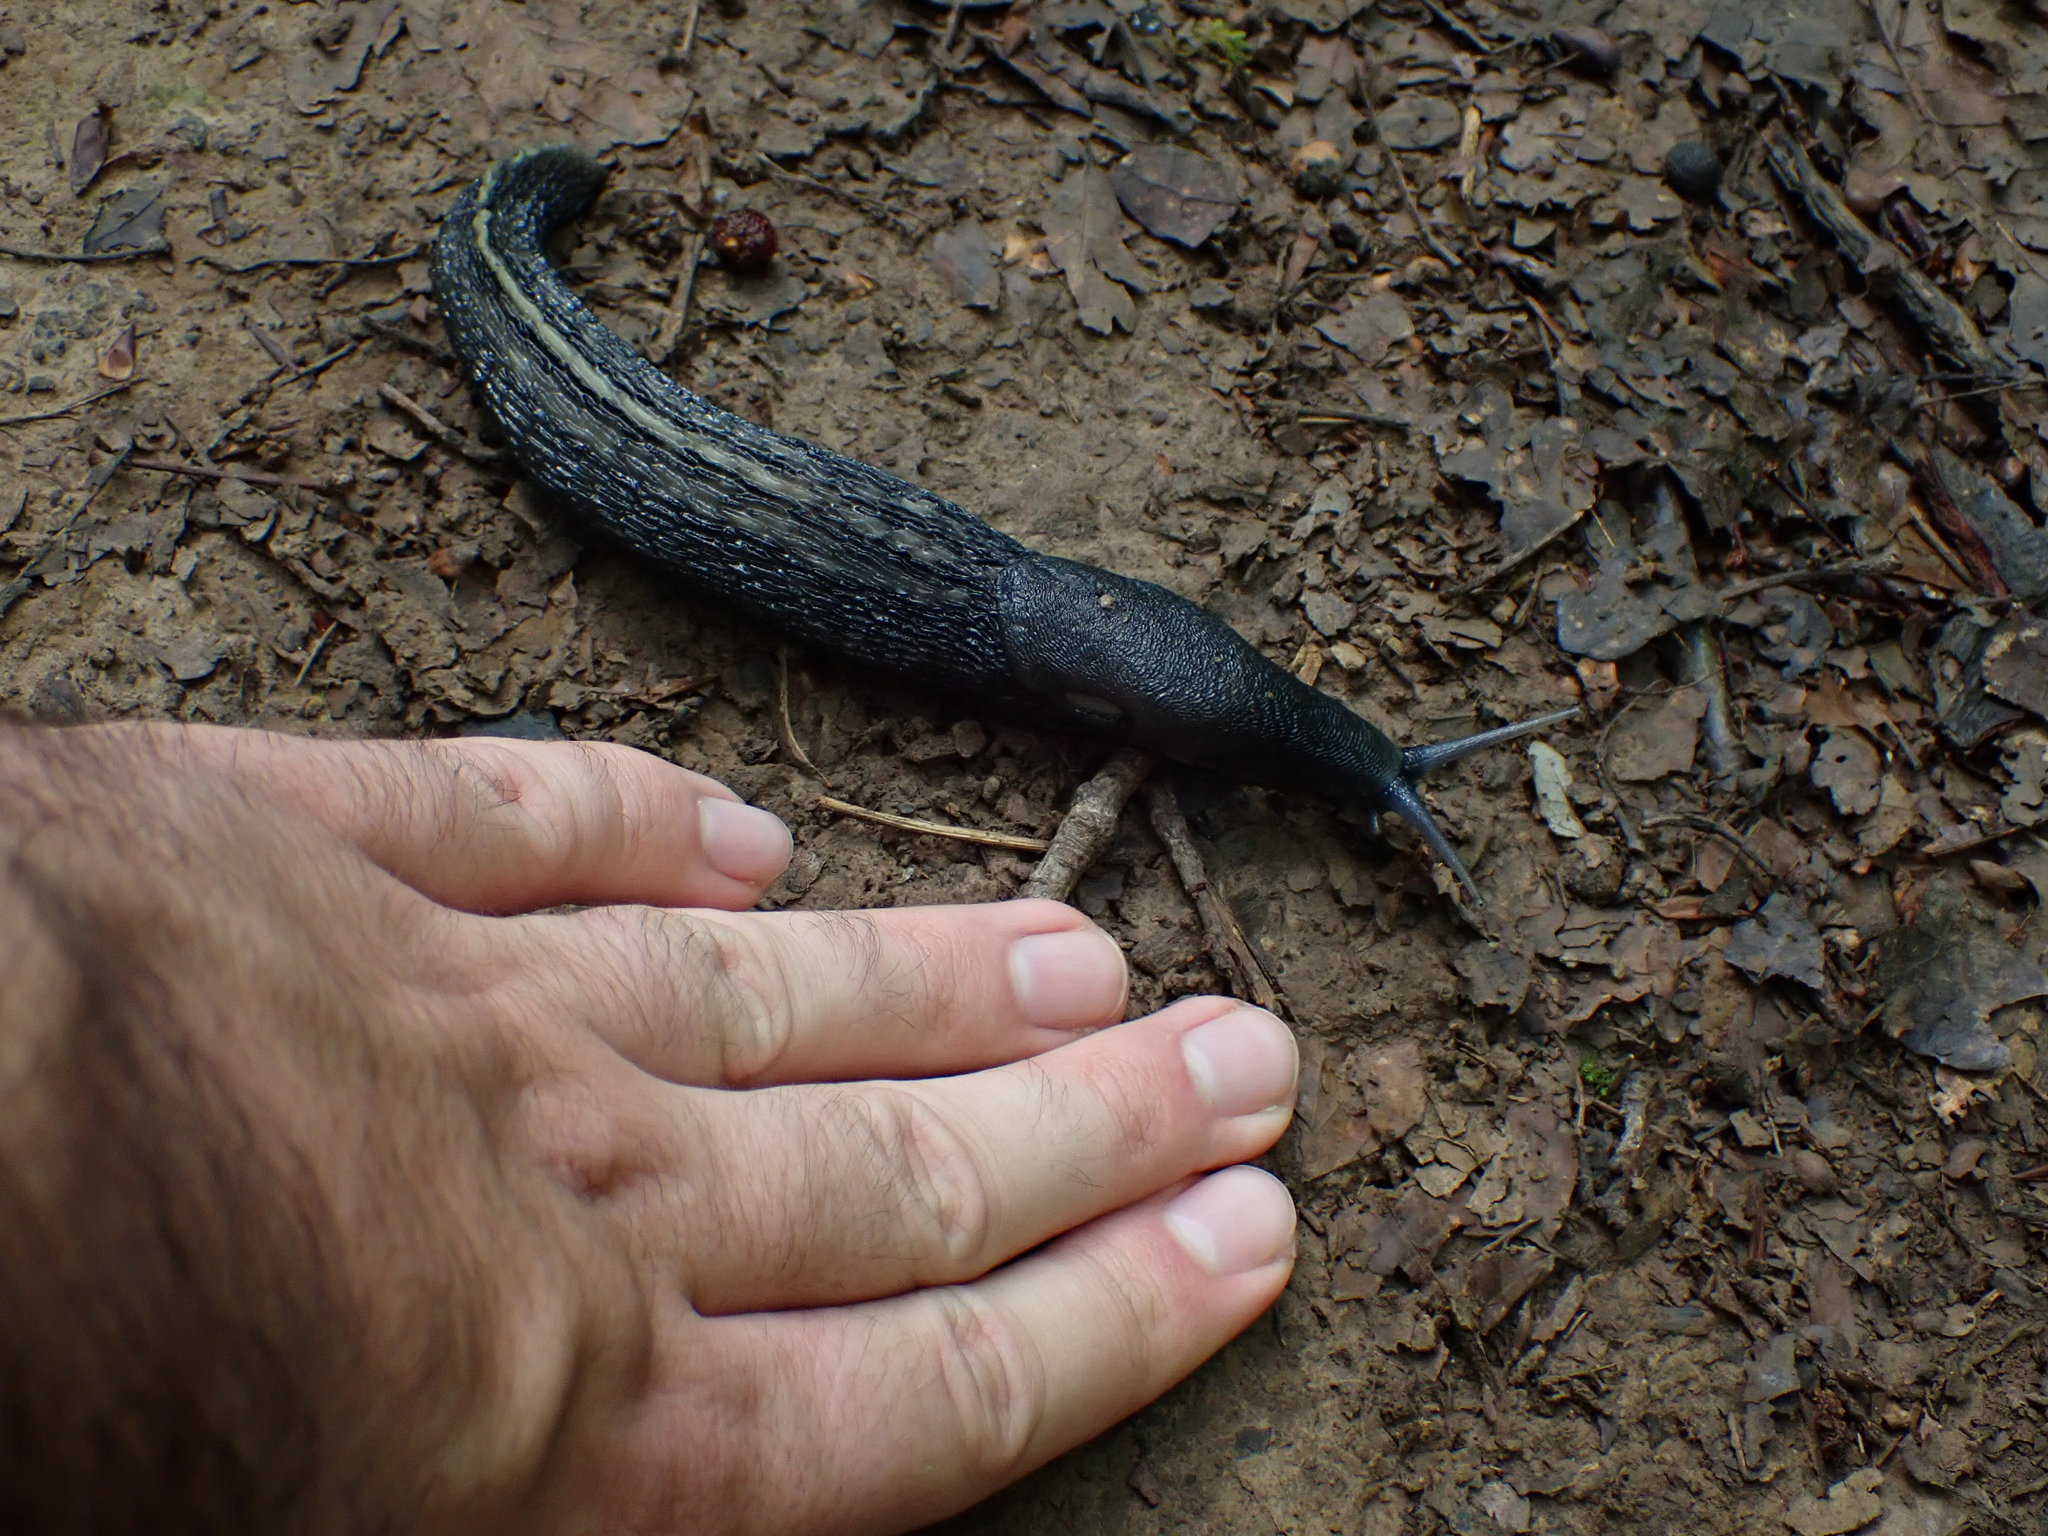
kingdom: Animalia
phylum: Mollusca
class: Gastropoda
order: Stylommatophora
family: Limacidae
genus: Limax
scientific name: Limax cinereoniger
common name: Ash-black slug
